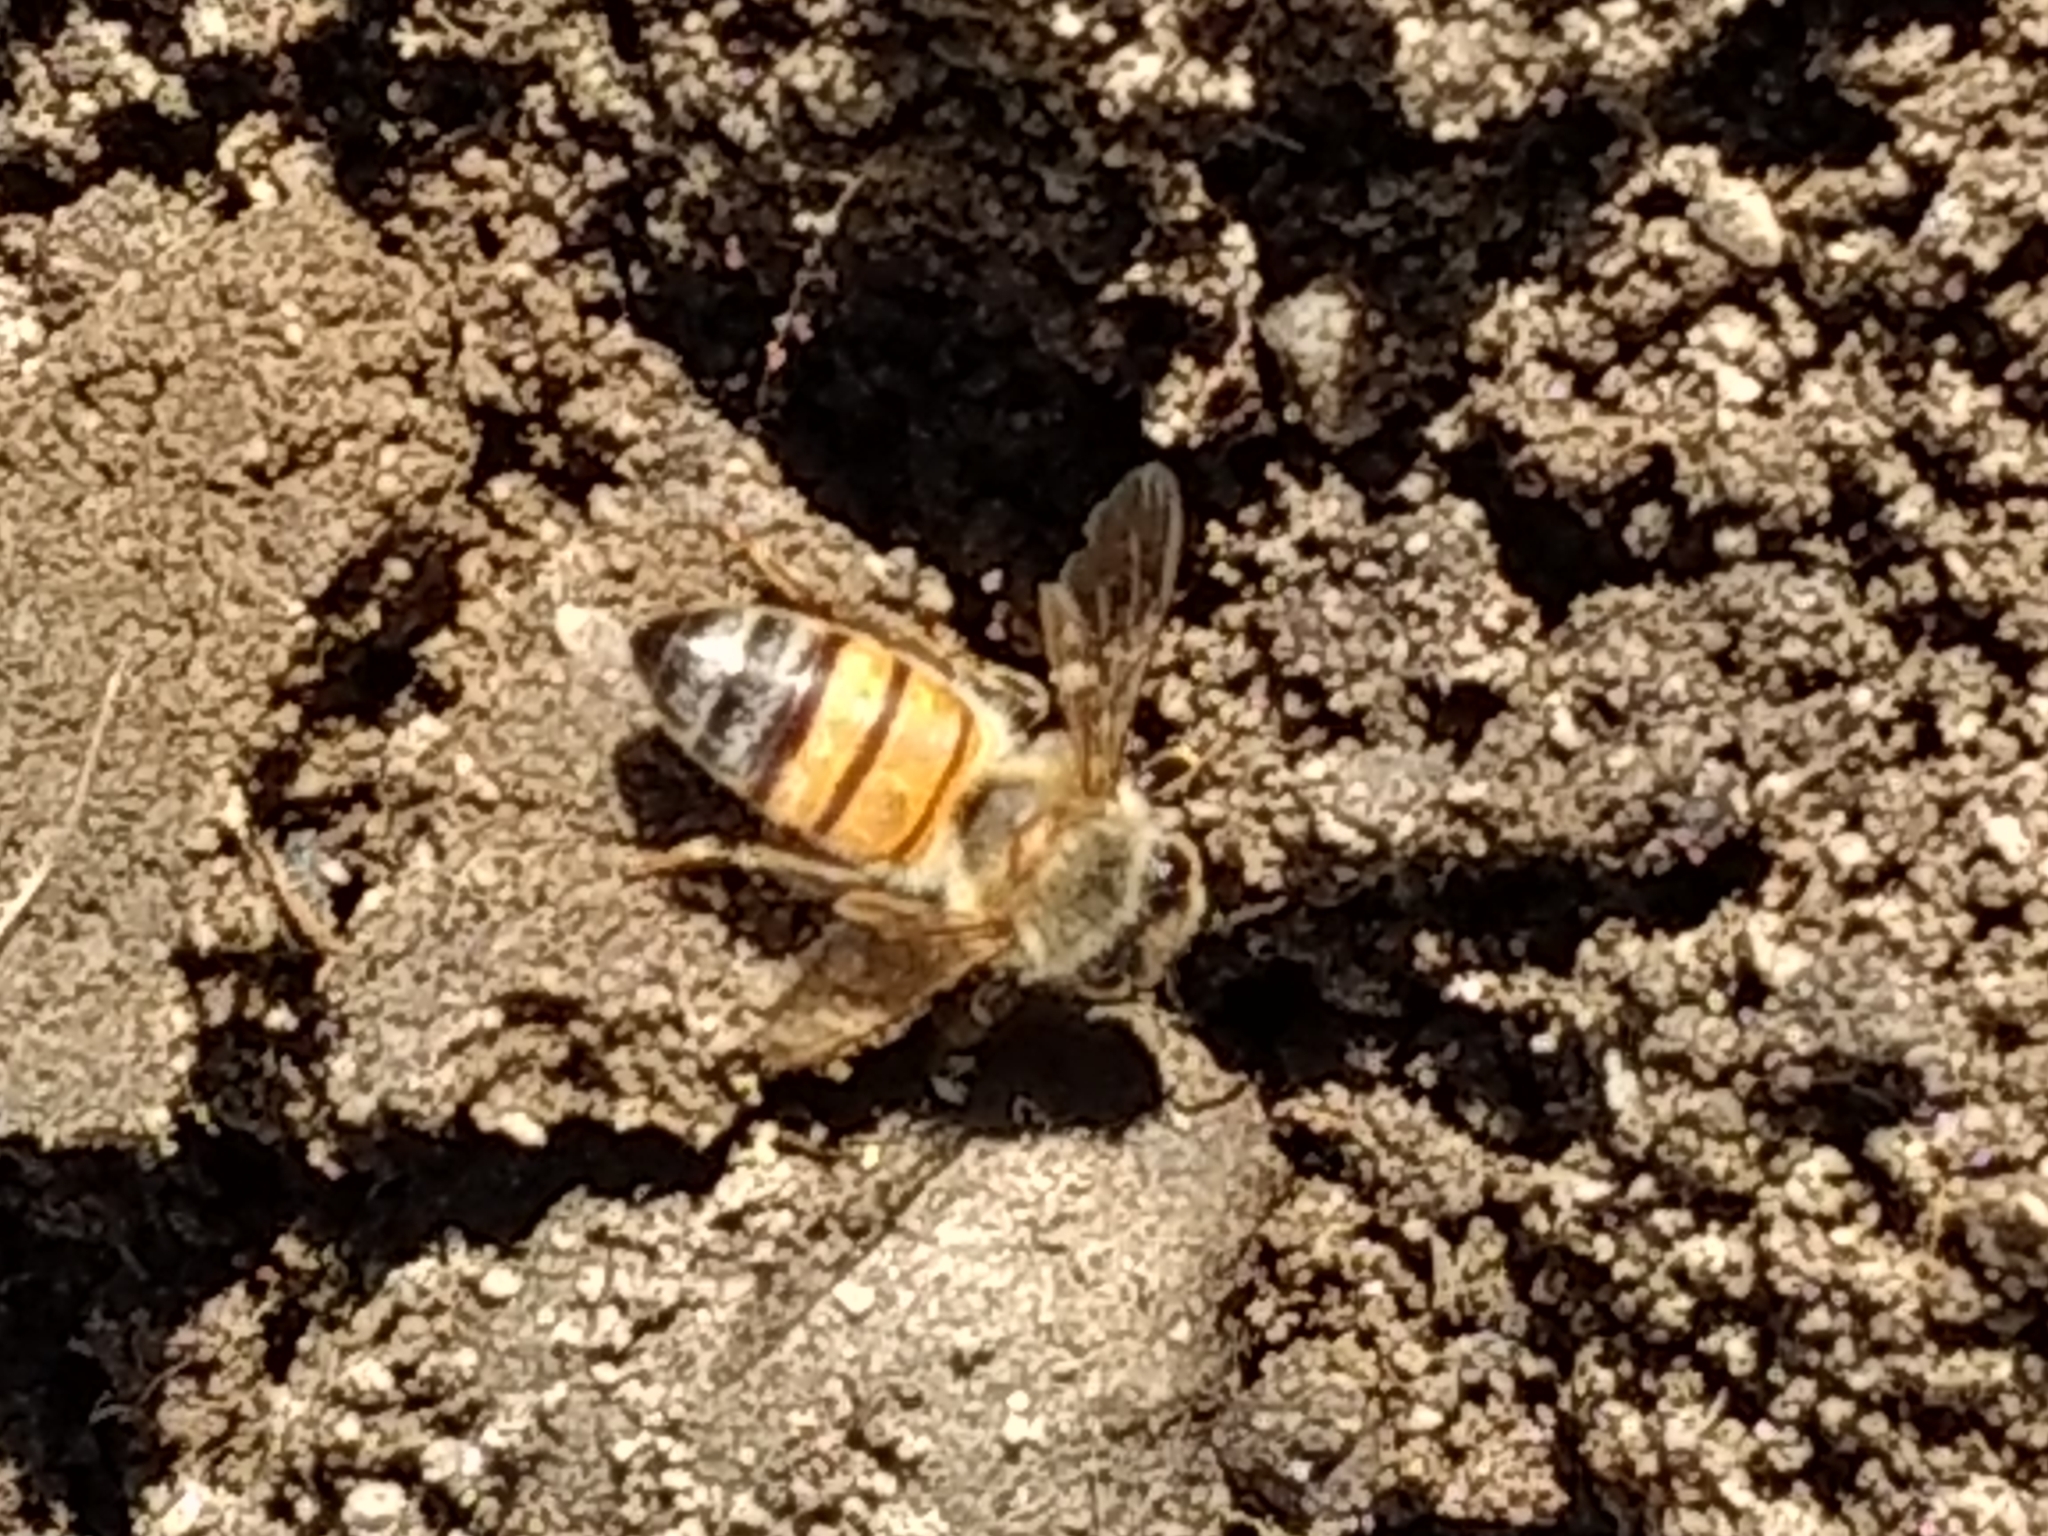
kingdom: Animalia
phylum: Arthropoda
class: Insecta
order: Hymenoptera
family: Apidae
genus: Apis
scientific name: Apis mellifera
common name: Honey bee
